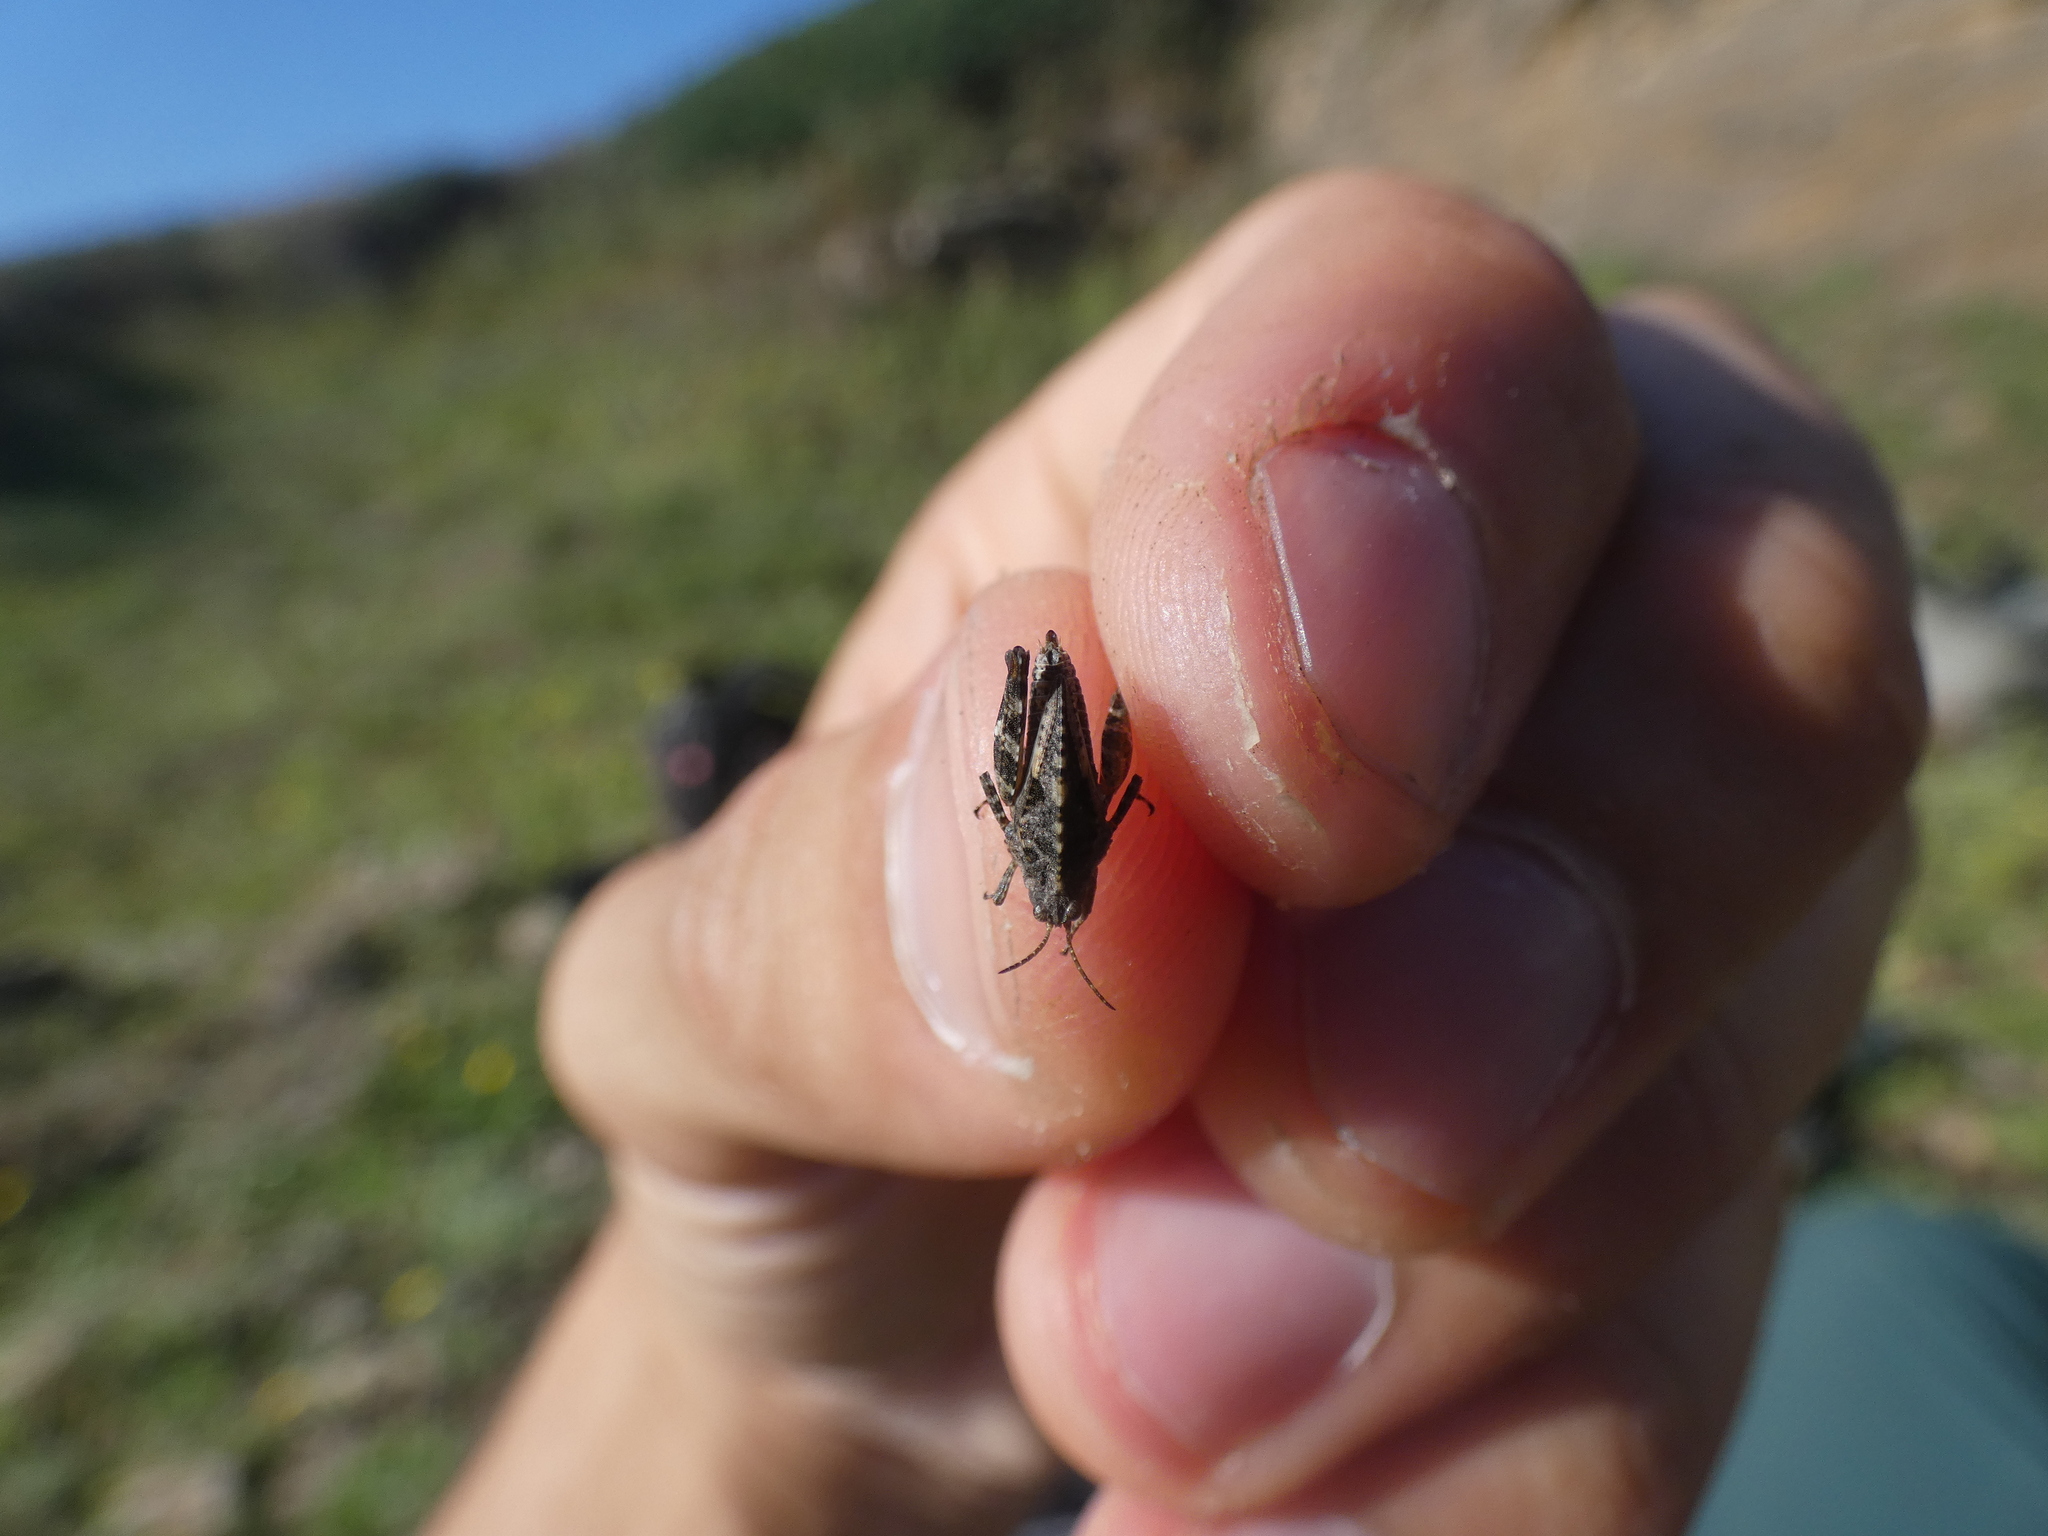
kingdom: Animalia
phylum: Arthropoda
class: Insecta
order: Orthoptera
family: Tetrigidae
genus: Tetrix
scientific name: Tetrix undulata
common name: Common groundhopper
